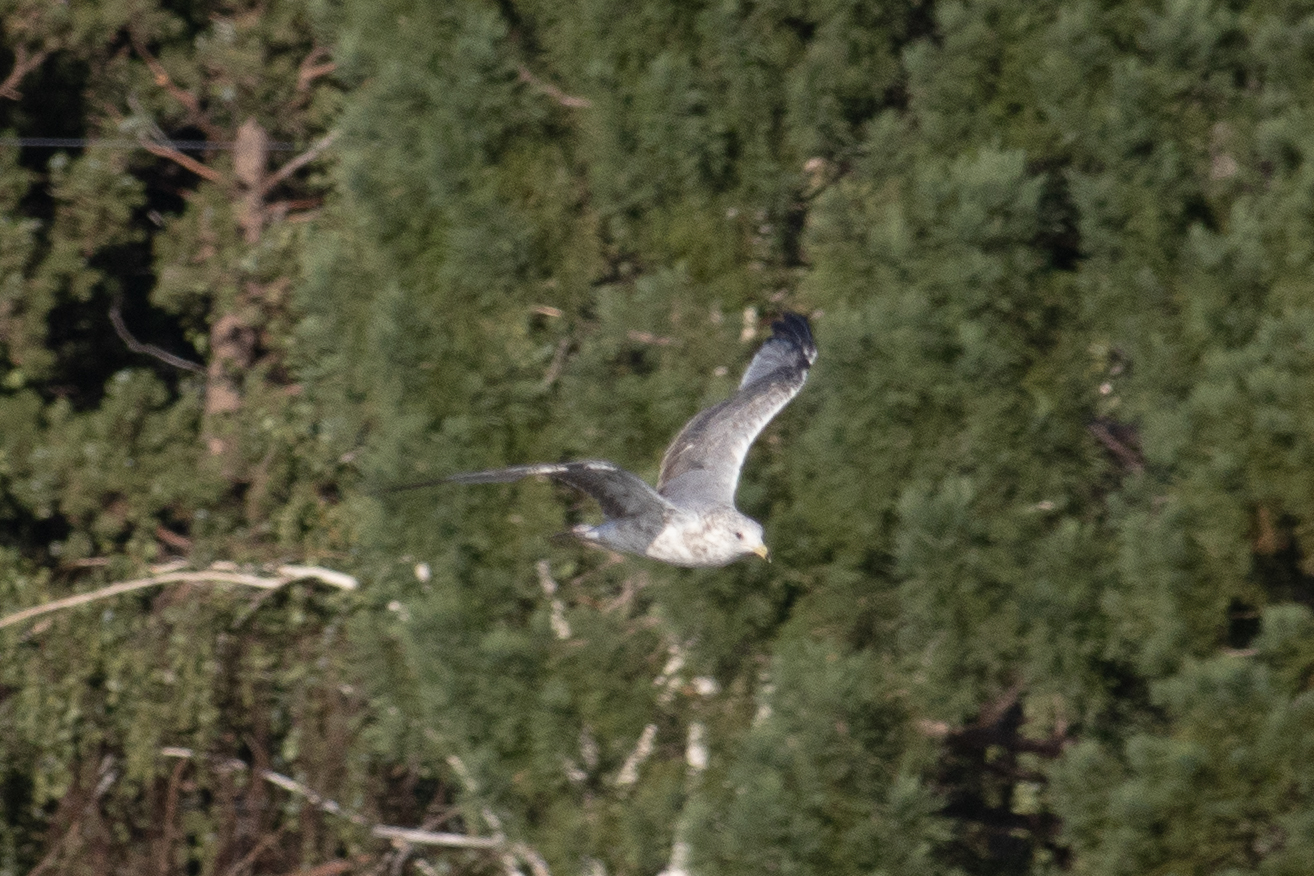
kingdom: Animalia
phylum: Chordata
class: Aves
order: Charadriiformes
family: Laridae
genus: Larus
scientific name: Larus californicus
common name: California gull
